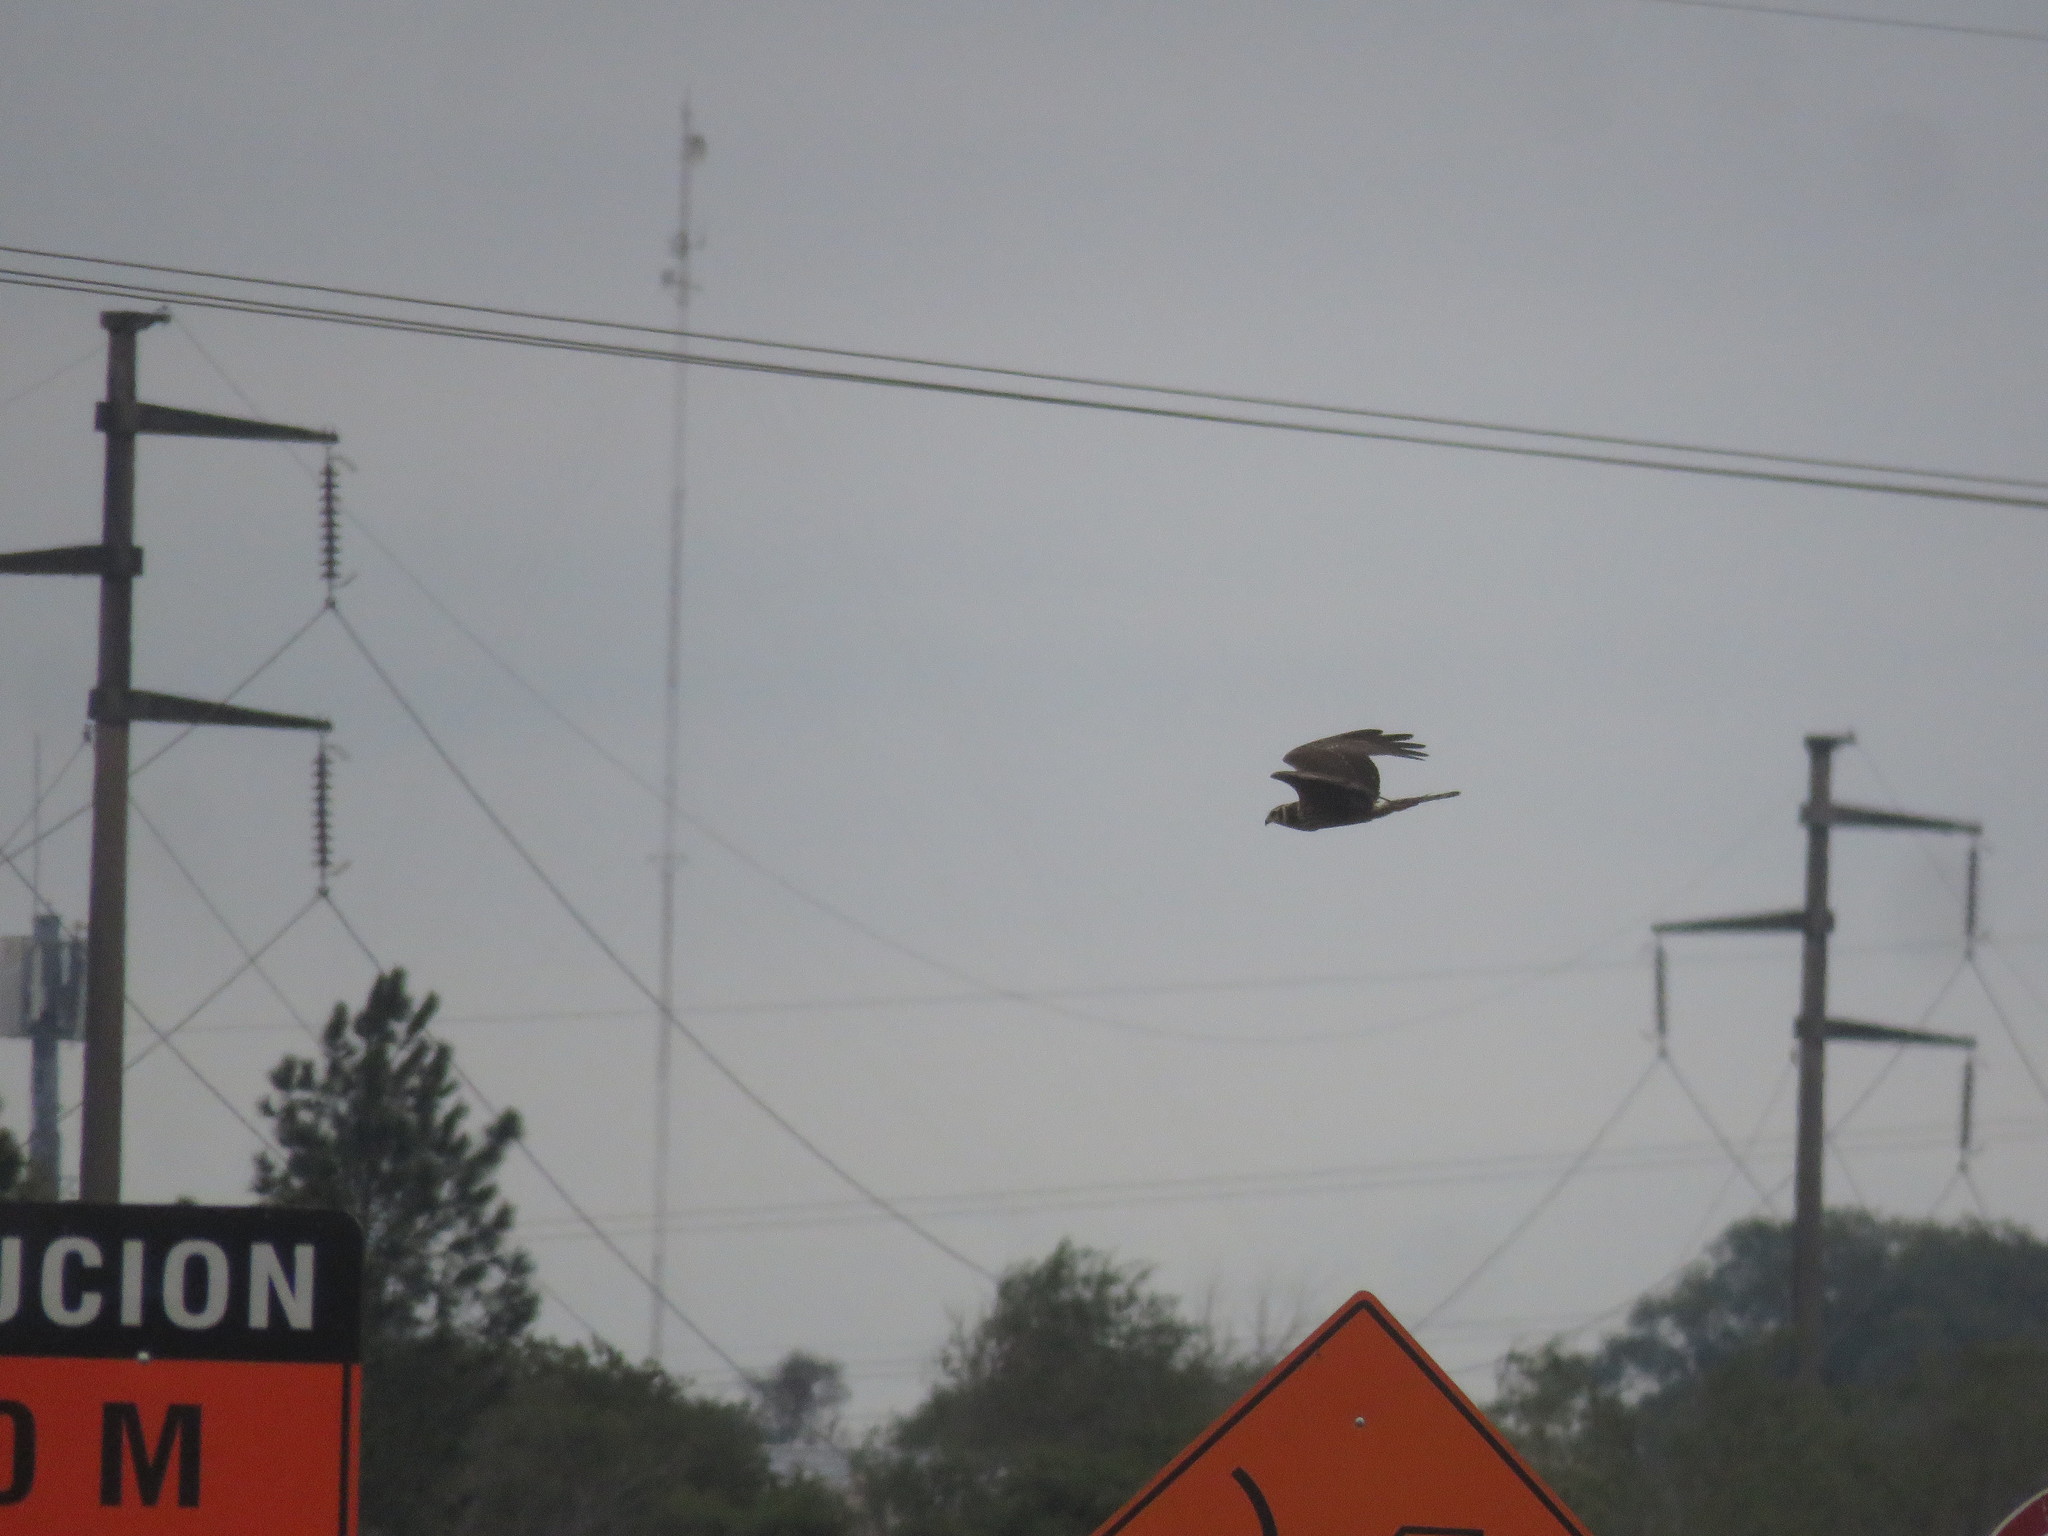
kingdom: Animalia
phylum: Chordata
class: Aves
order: Accipitriformes
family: Accipitridae
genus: Circus
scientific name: Circus buffoni
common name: Long-winged harrier
